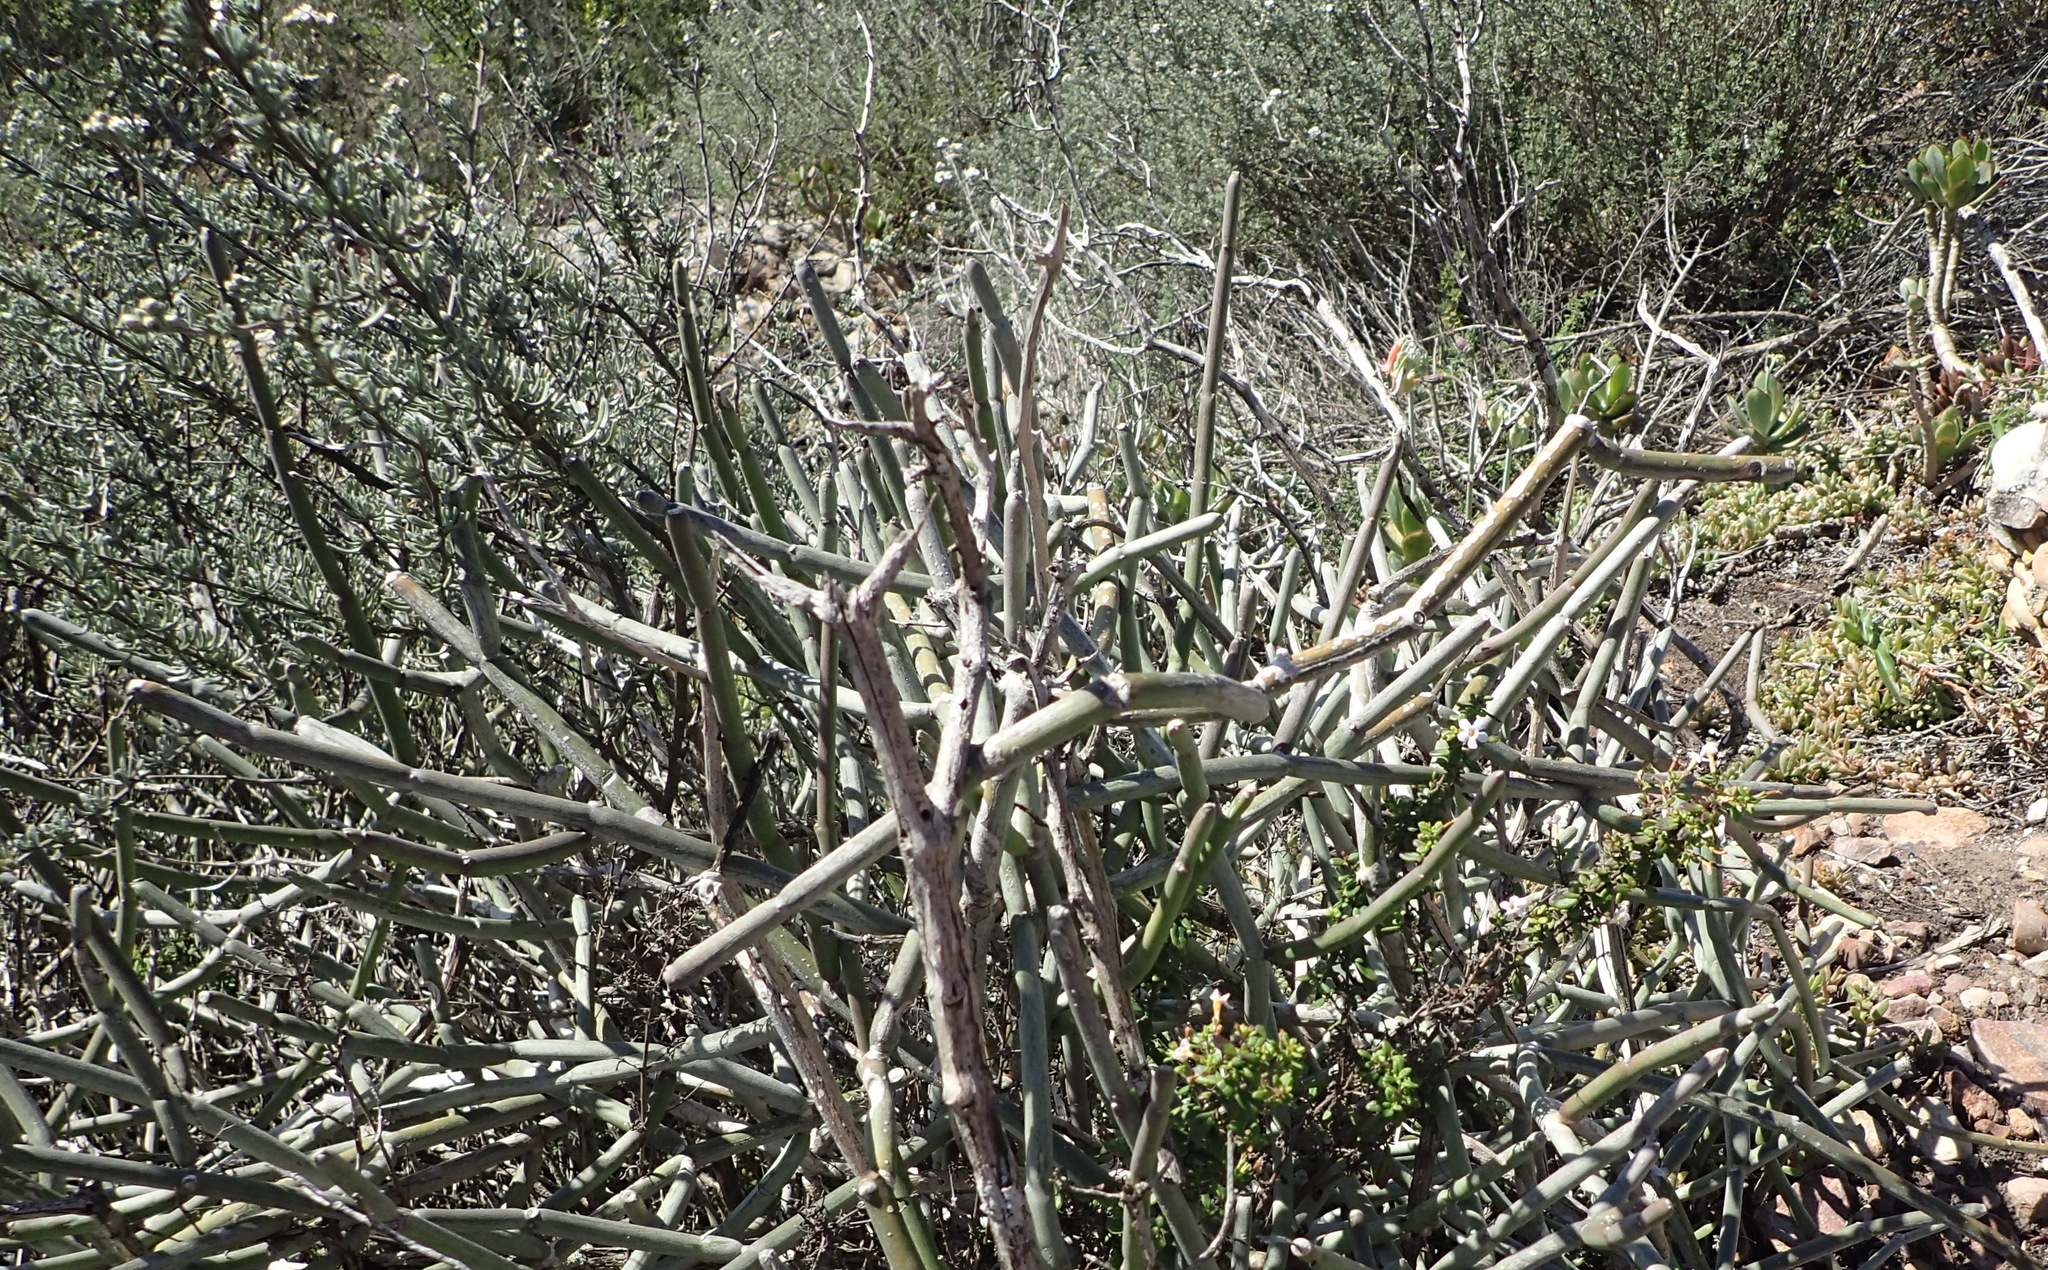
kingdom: Plantae
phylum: Tracheophyta
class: Magnoliopsida
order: Gentianales
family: Apocynaceae
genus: Cynanchum
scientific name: Cynanchum viminale
